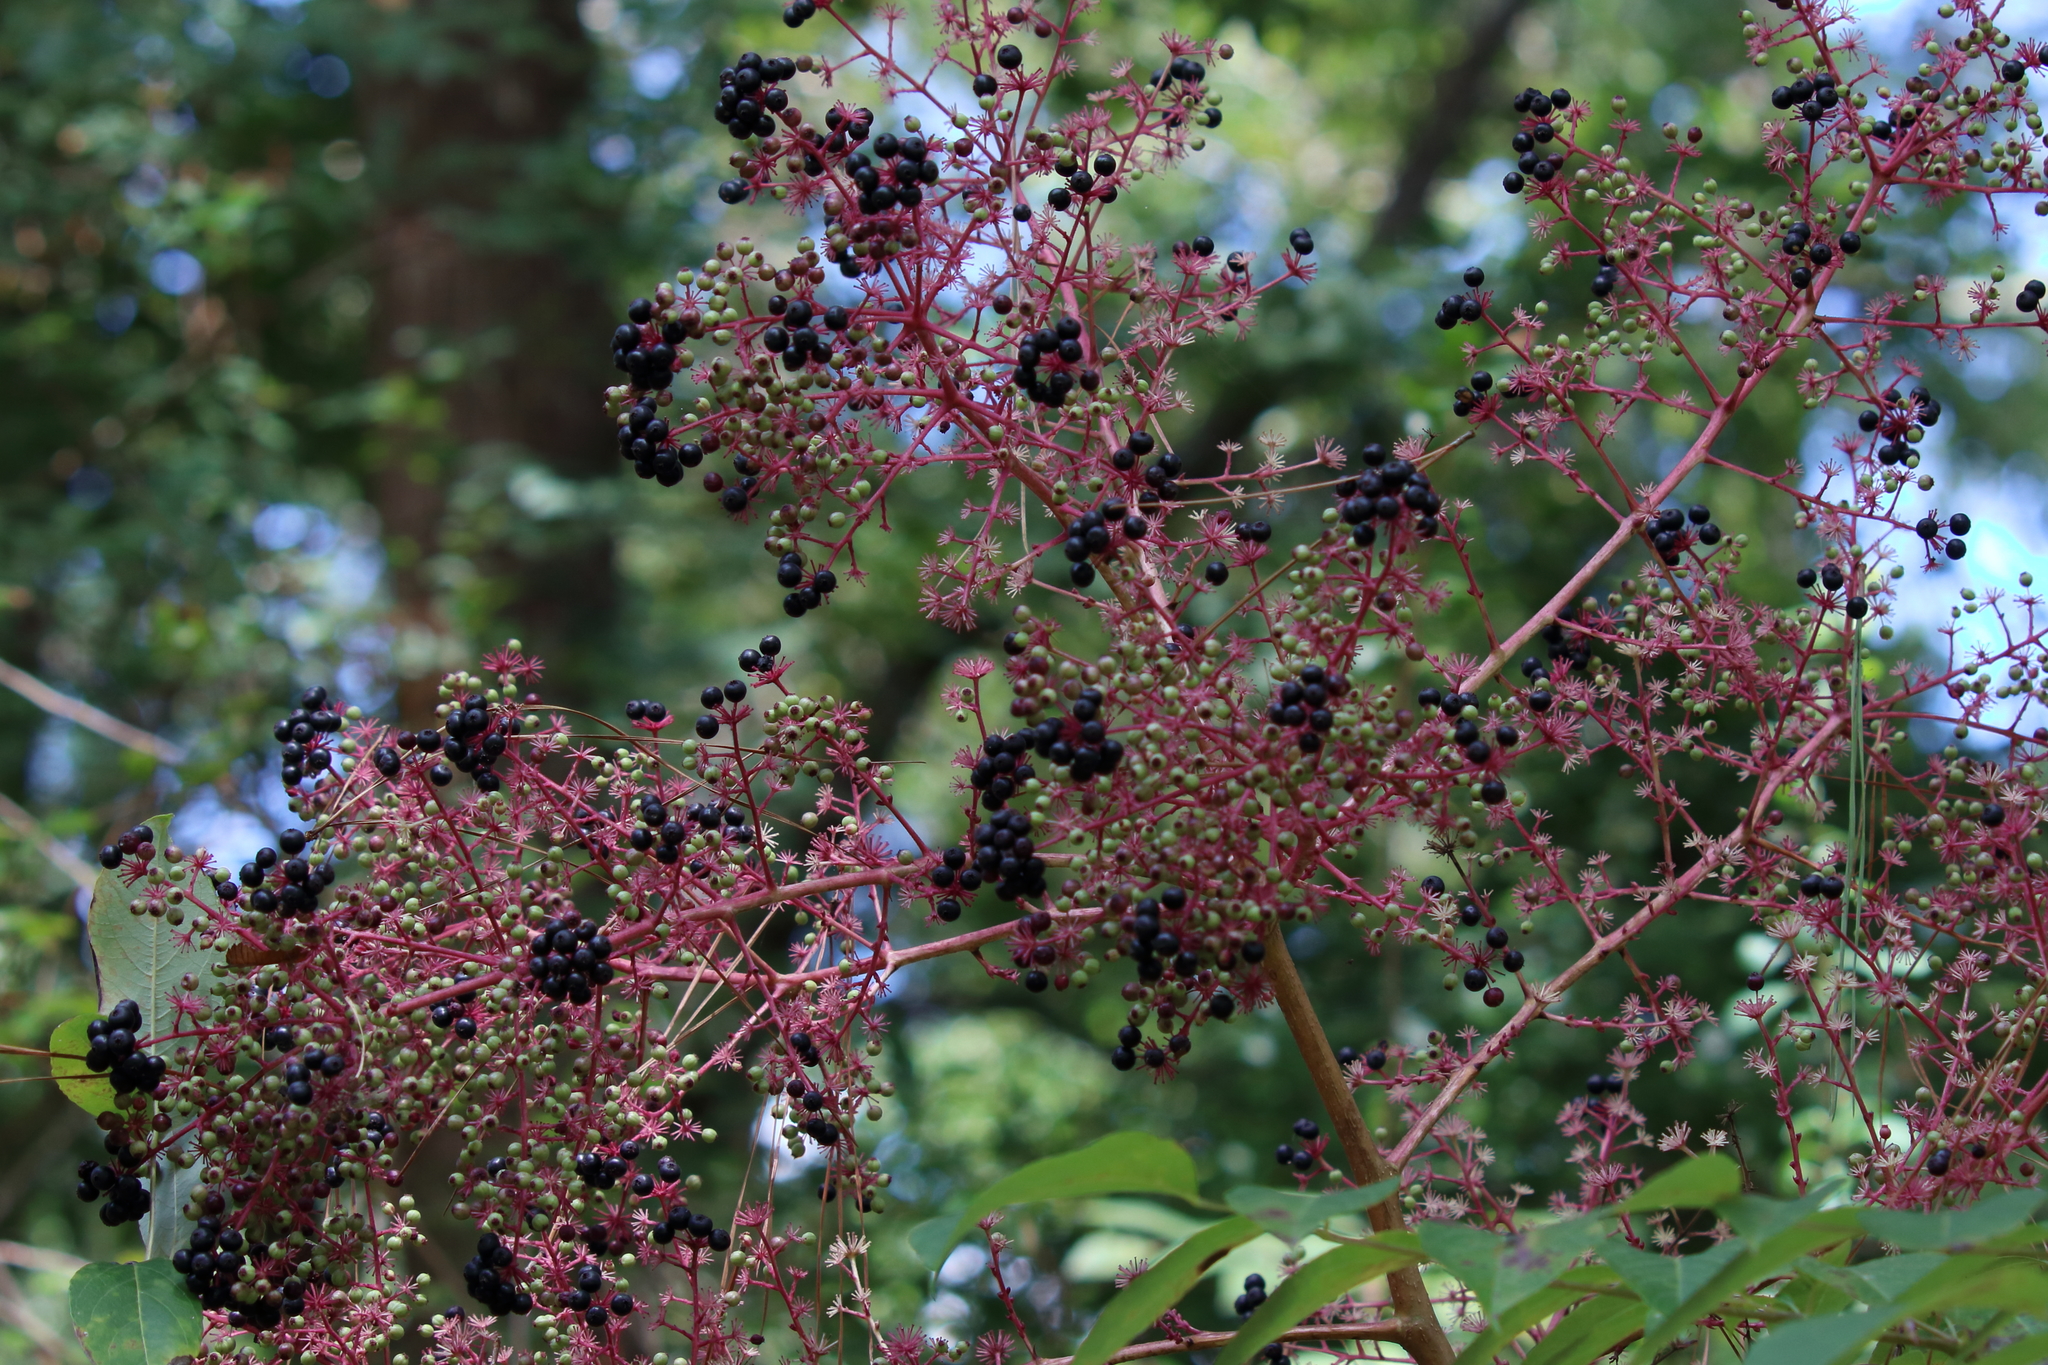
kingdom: Plantae
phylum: Tracheophyta
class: Magnoliopsida
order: Apiales
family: Araliaceae
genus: Aralia
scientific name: Aralia spinosa
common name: Hercules'-club
